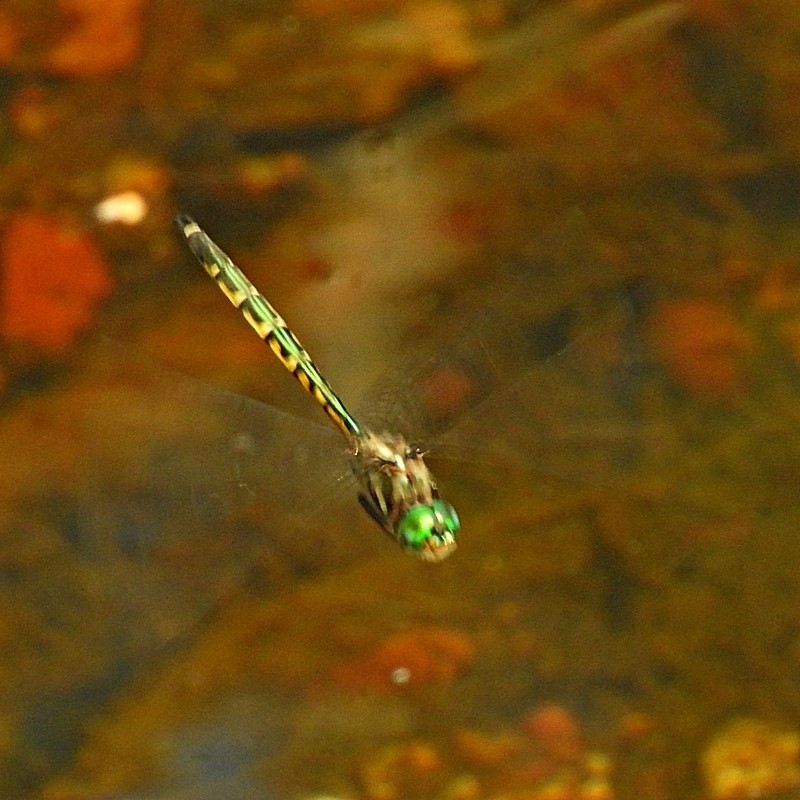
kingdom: Animalia
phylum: Arthropoda
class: Insecta
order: Odonata
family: Corduliidae
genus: Hemicordulia
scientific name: Hemicordulia australiae
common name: Sentry dragonfly
